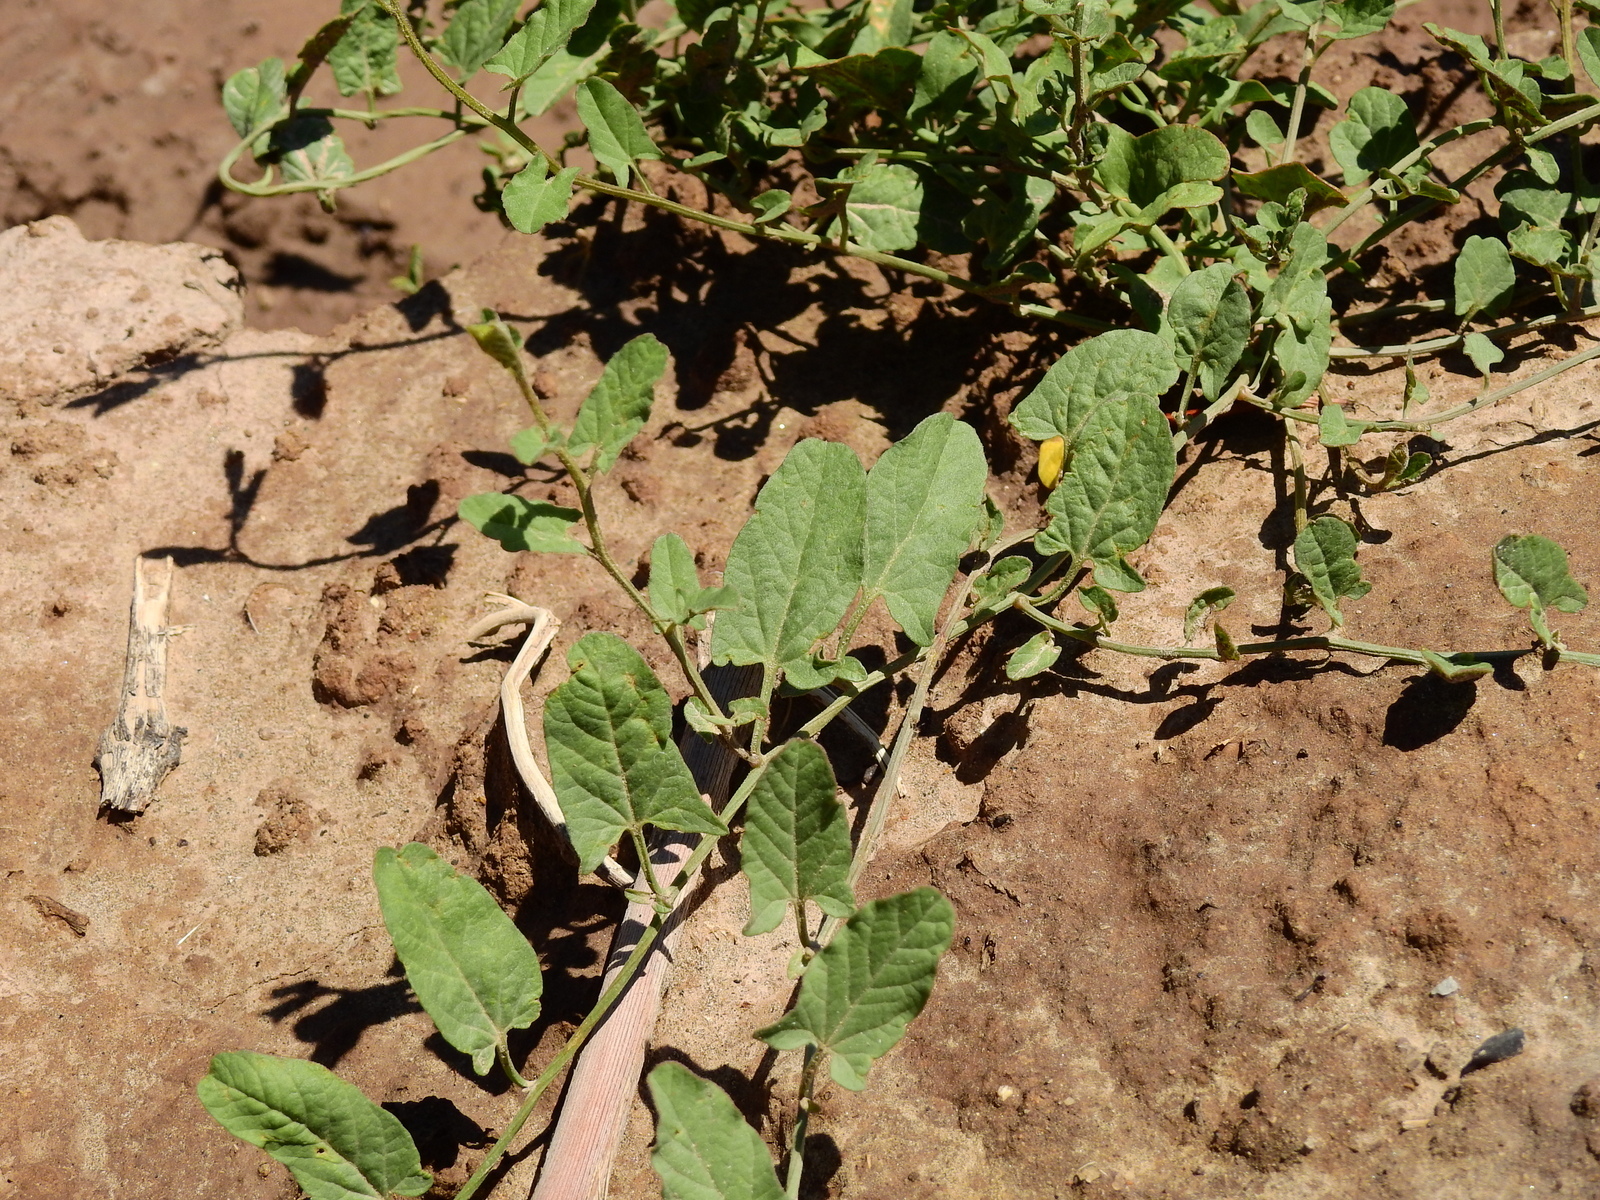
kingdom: Plantae
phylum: Tracheophyta
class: Magnoliopsida
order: Solanales
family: Convolvulaceae
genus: Convolvulus
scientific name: Convolvulus arvensis
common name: Field bindweed
